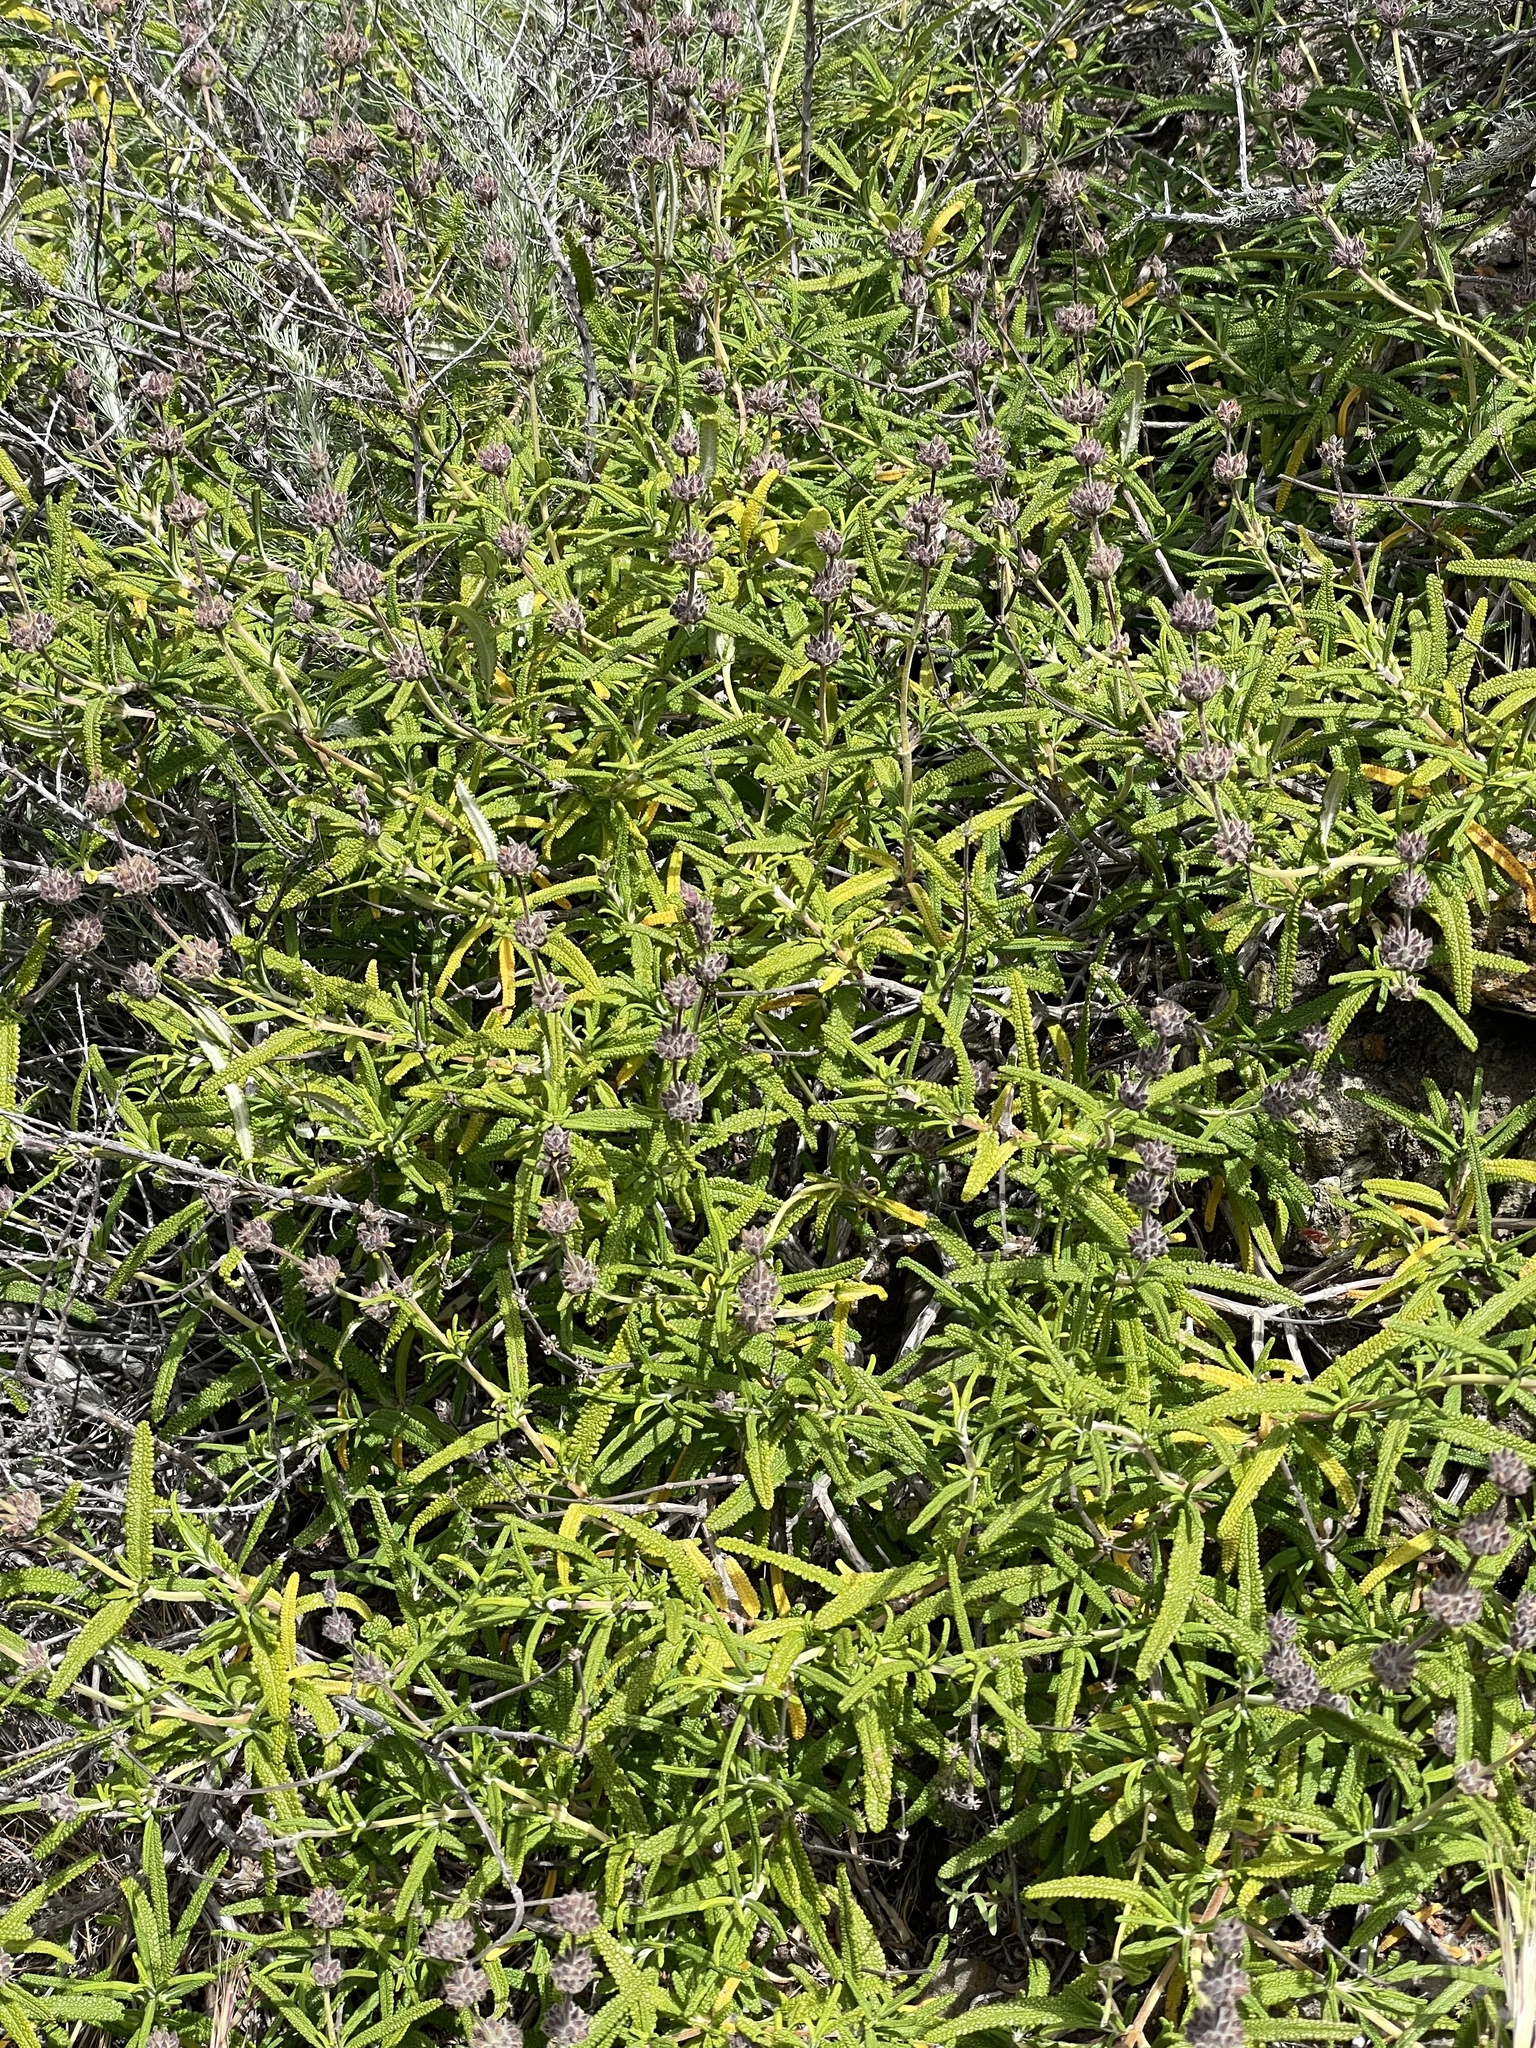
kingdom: Plantae
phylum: Tracheophyta
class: Magnoliopsida
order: Lamiales
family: Lamiaceae
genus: Salvia
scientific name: Salvia brandegeei
